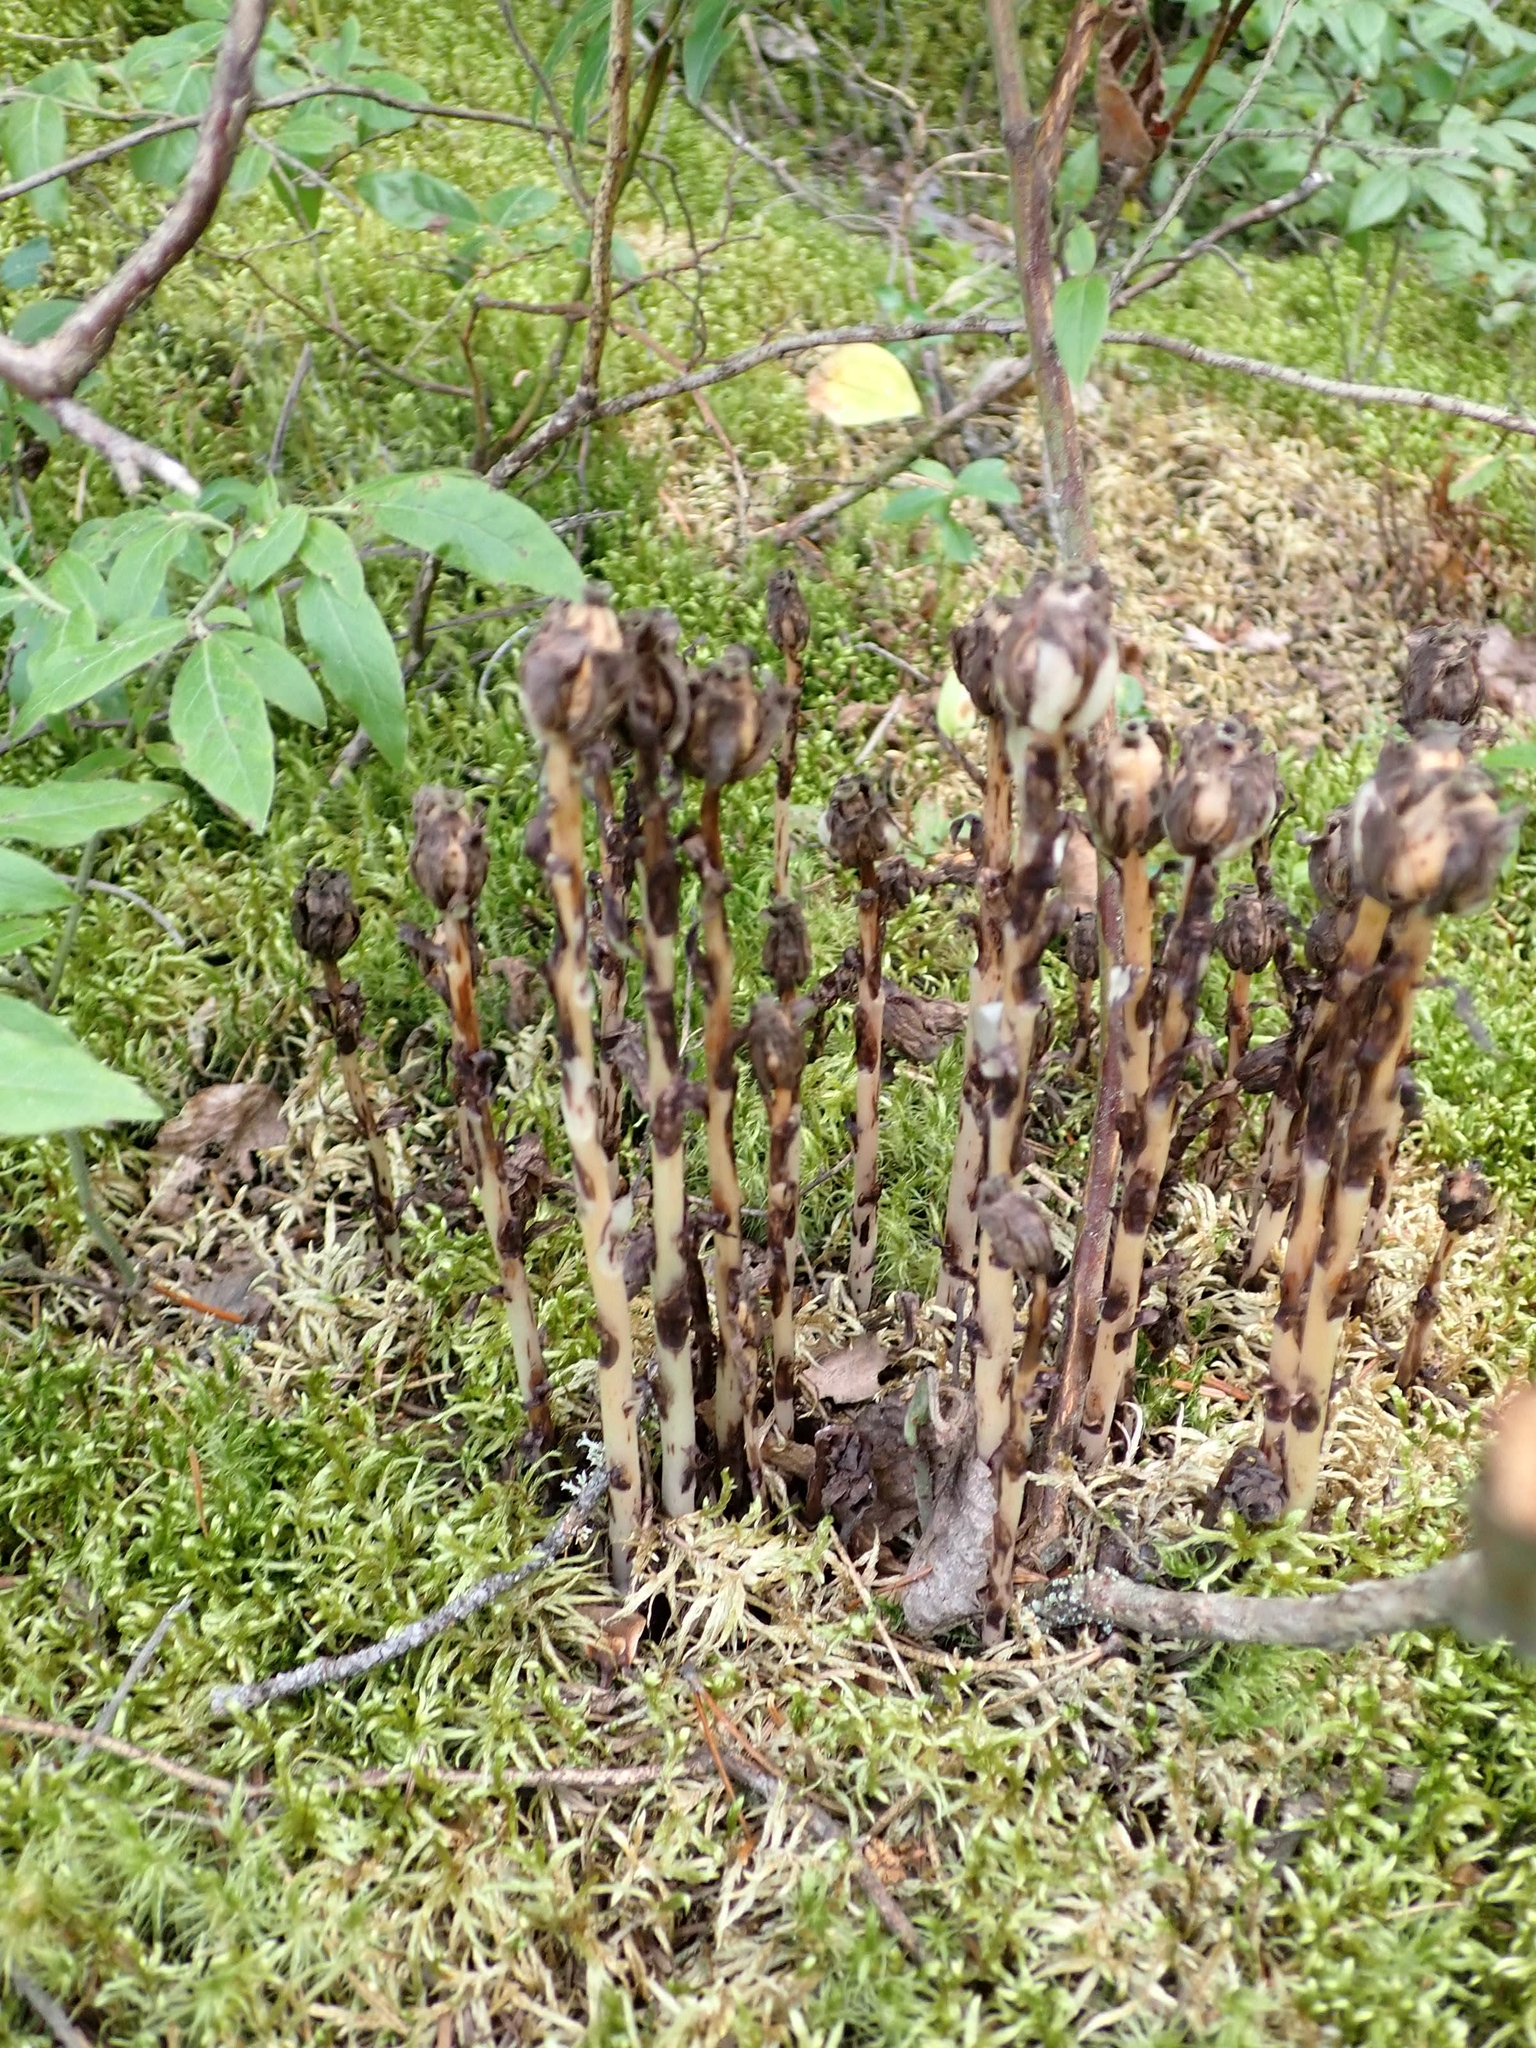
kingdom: Plantae
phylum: Tracheophyta
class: Magnoliopsida
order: Ericales
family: Ericaceae
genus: Monotropa
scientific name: Monotropa uniflora
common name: Convulsion root
